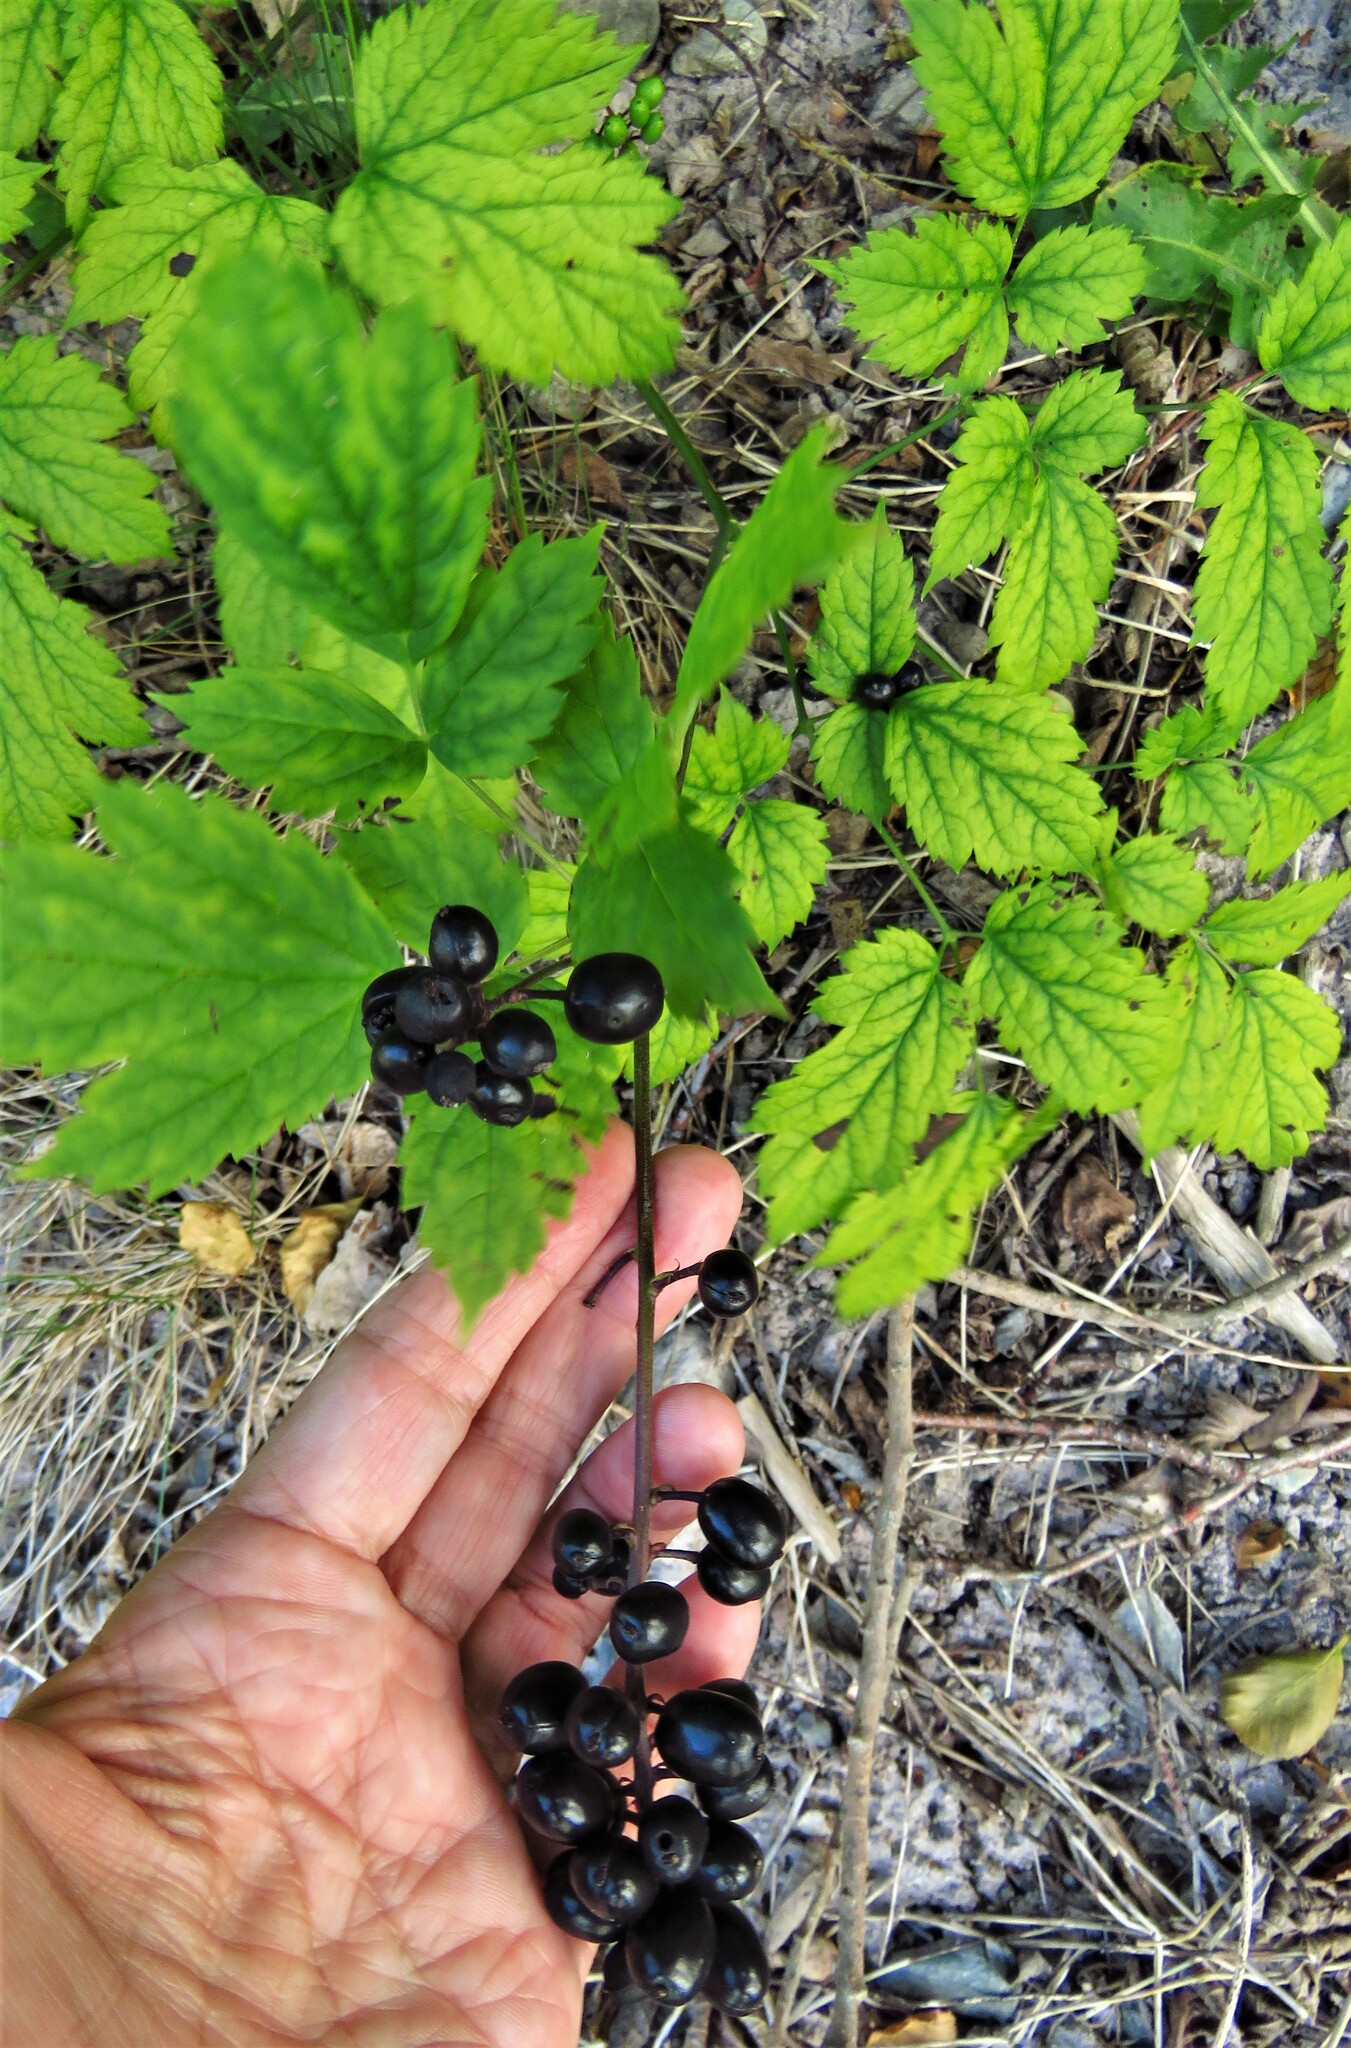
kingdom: Plantae
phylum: Tracheophyta
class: Magnoliopsida
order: Ranunculales
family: Ranunculaceae
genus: Actaea
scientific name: Actaea spicata
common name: Baneberry
